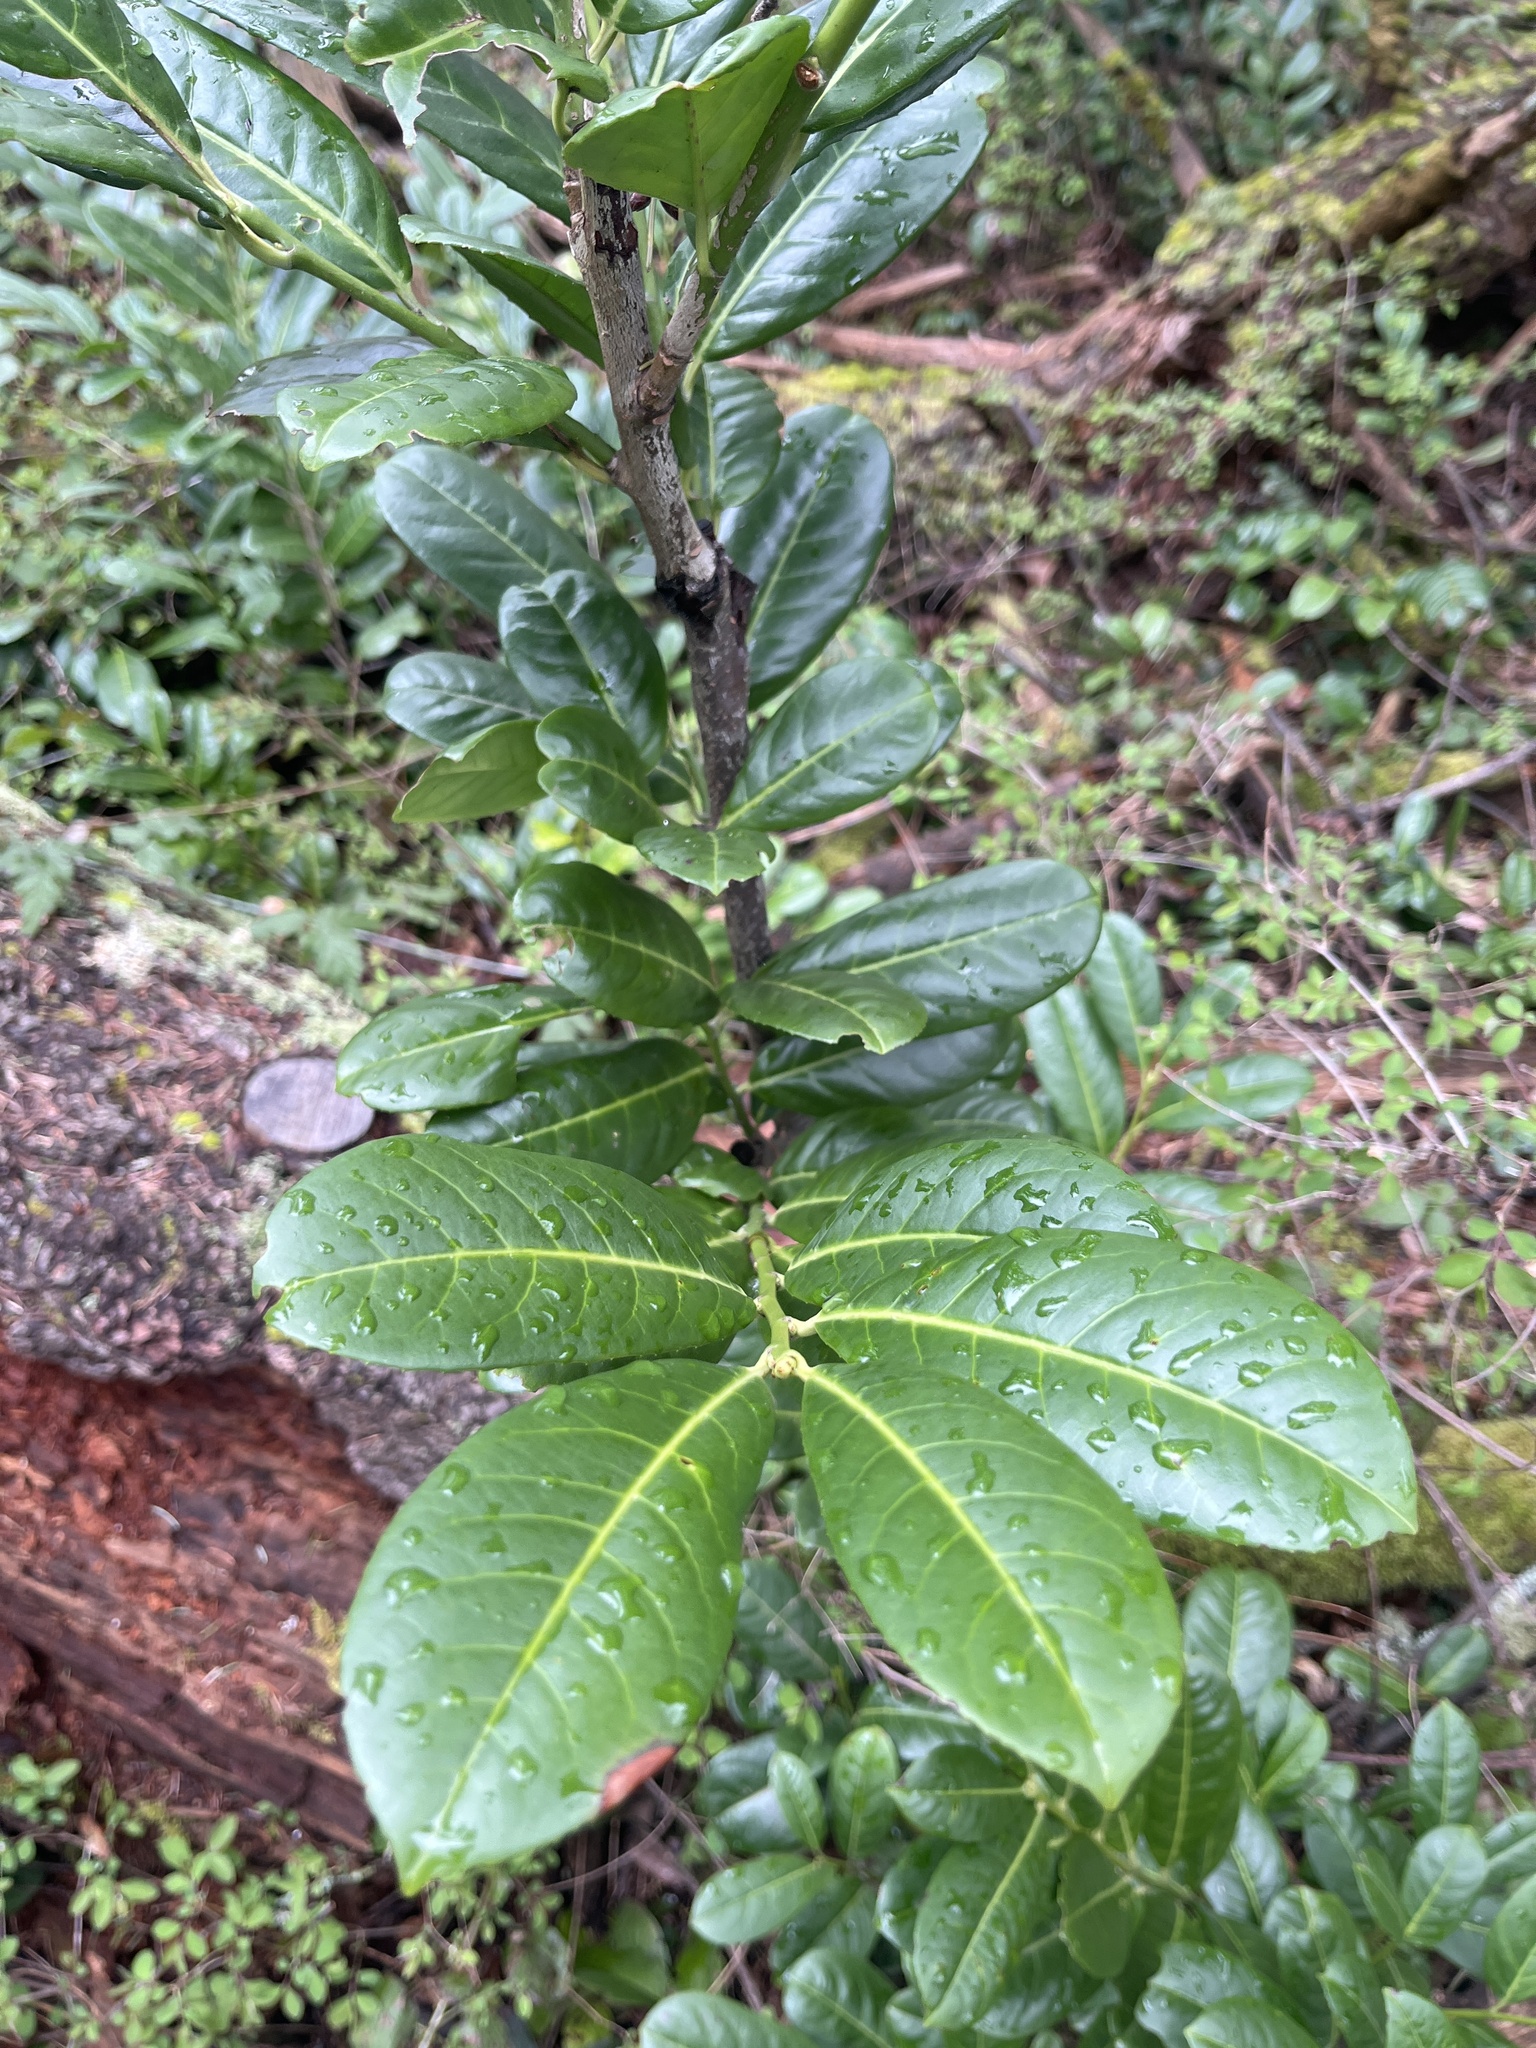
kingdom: Plantae
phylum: Tracheophyta
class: Magnoliopsida
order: Rosales
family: Rosaceae
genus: Prunus
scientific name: Prunus laurocerasus
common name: Cherry laurel
